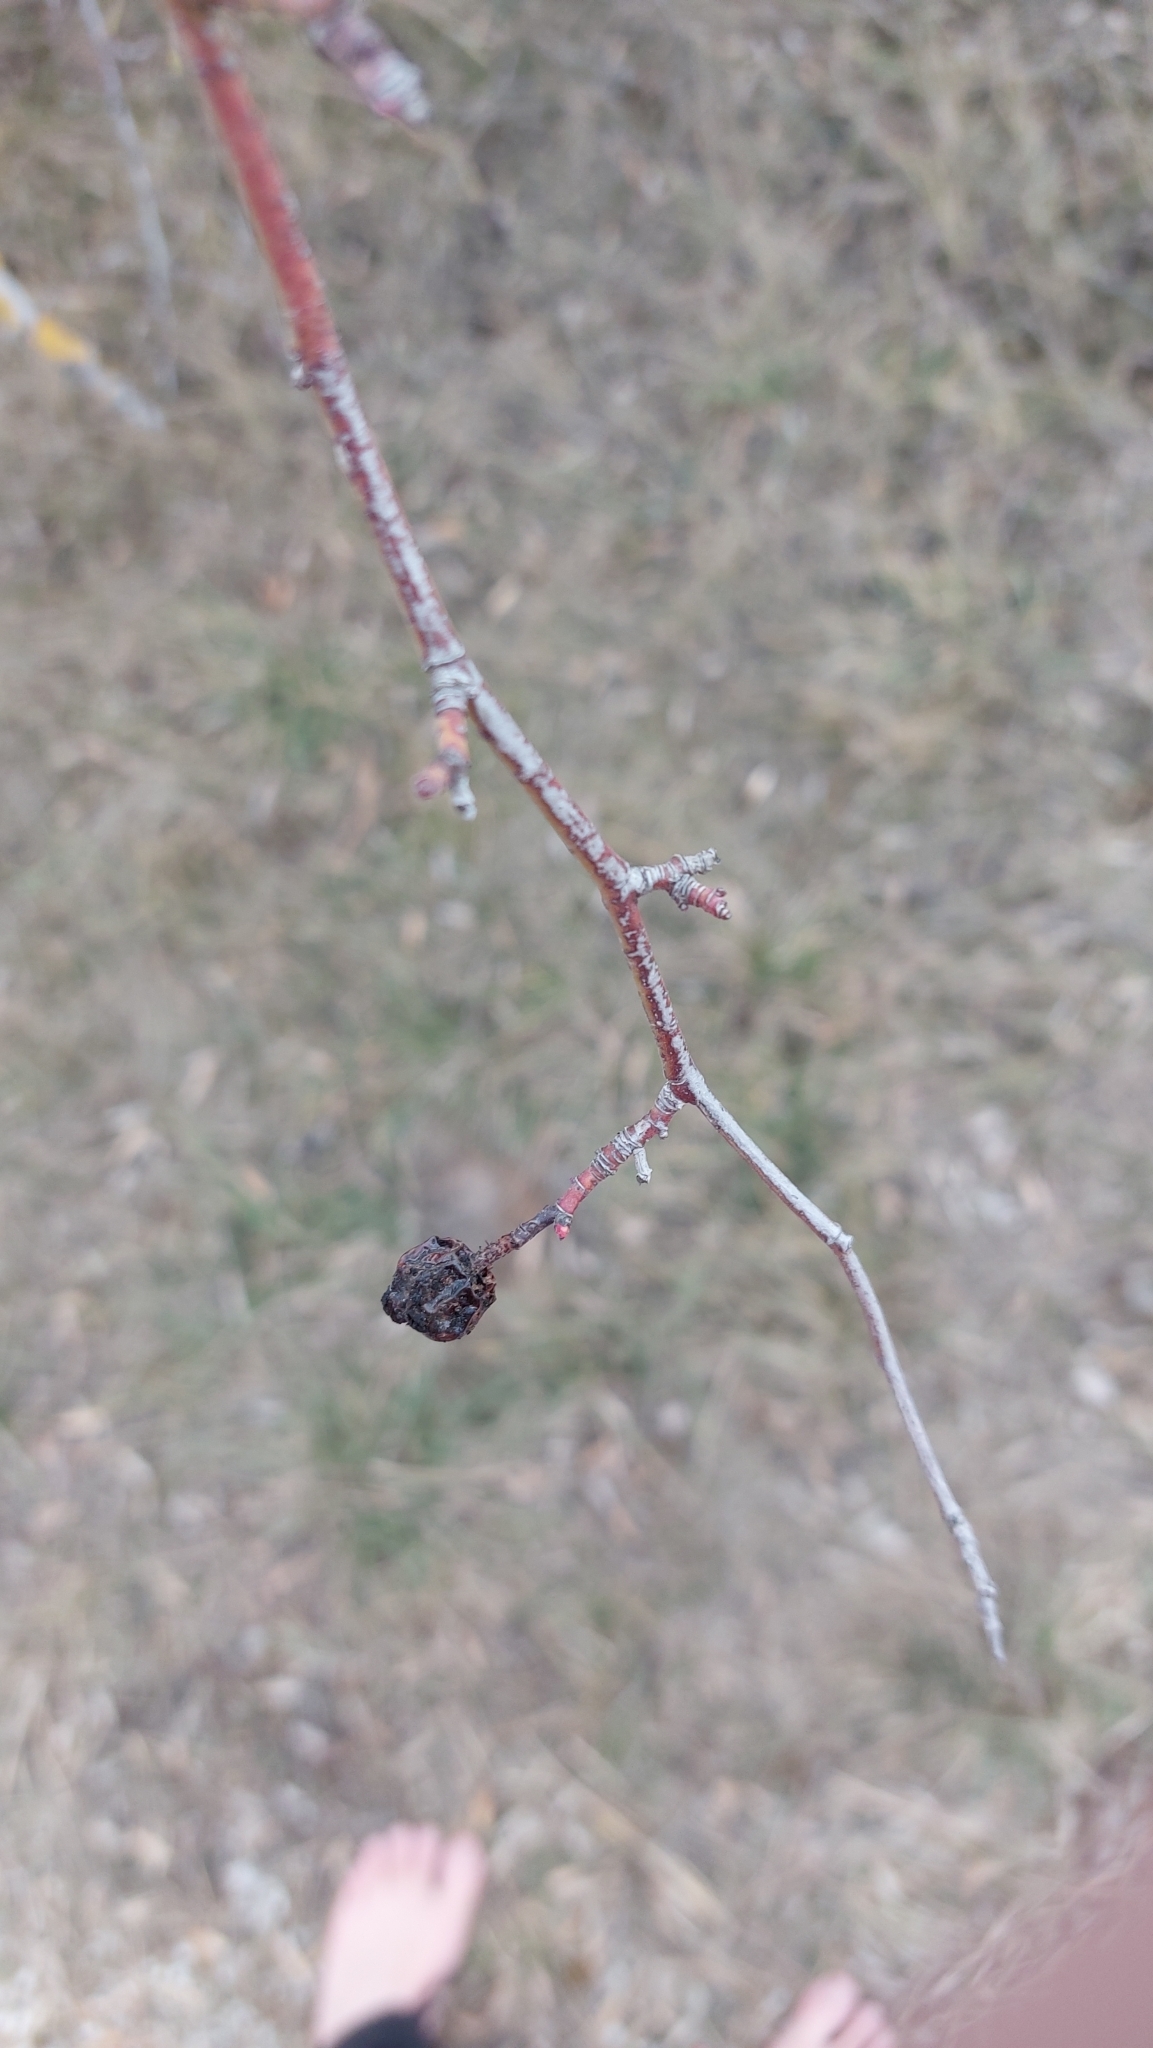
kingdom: Plantae
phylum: Tracheophyta
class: Magnoliopsida
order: Rosales
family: Rosaceae
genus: Rosa
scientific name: Rosa
